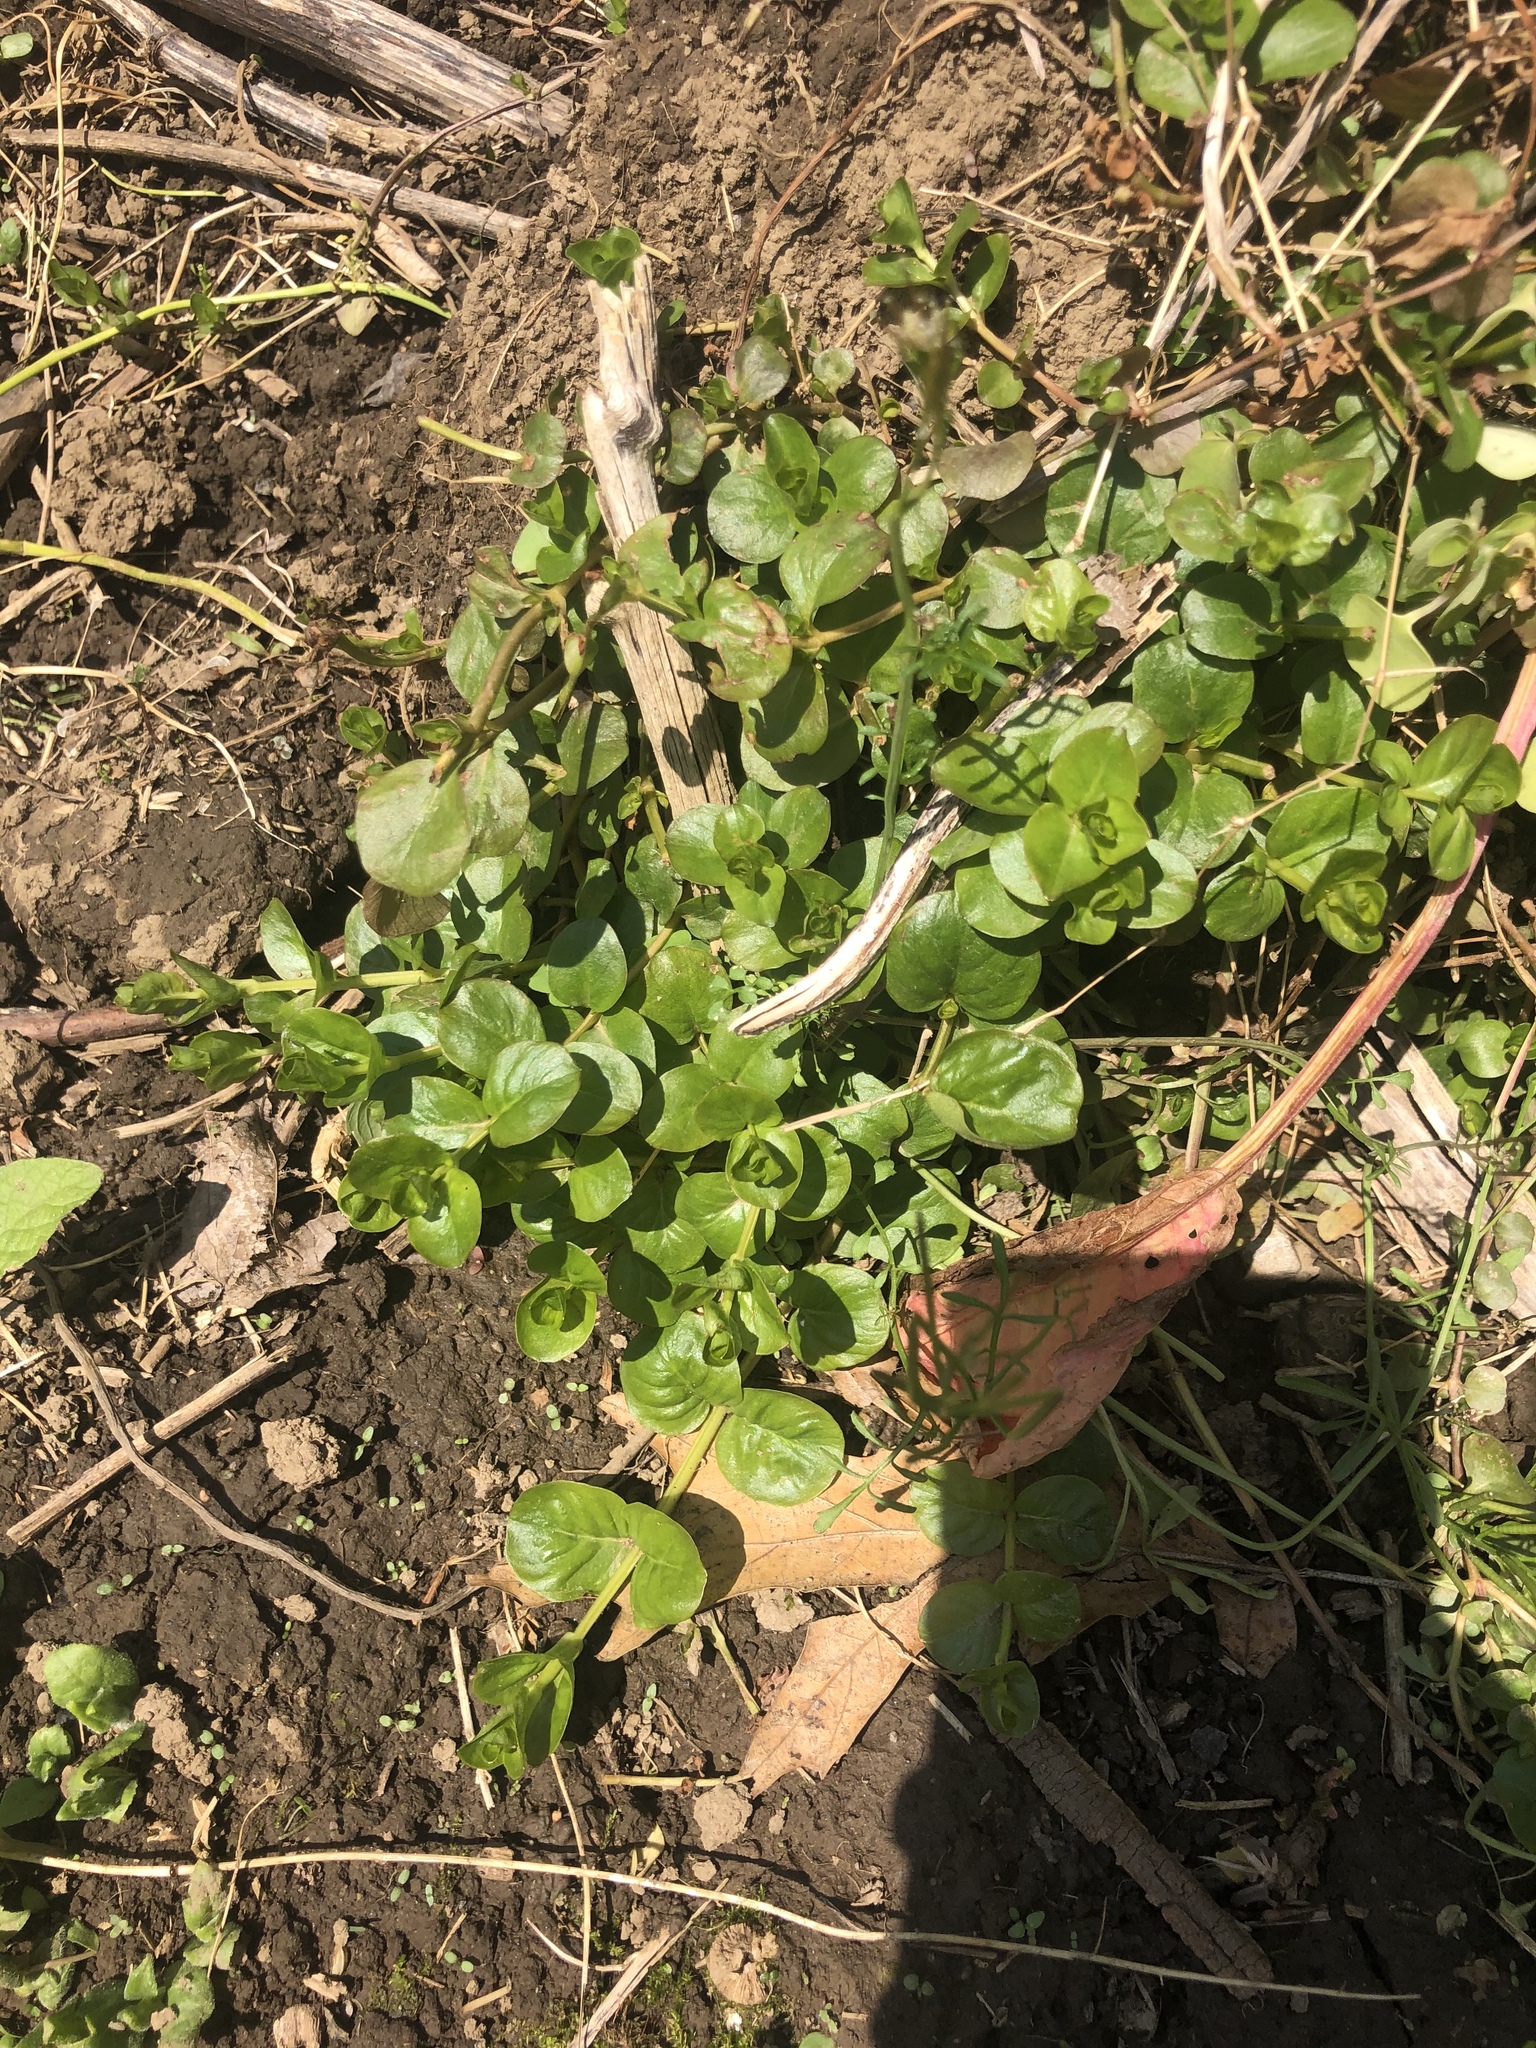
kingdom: Plantae
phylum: Tracheophyta
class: Magnoliopsida
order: Ericales
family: Primulaceae
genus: Lysimachia
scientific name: Lysimachia nummularia
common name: Moneywort
